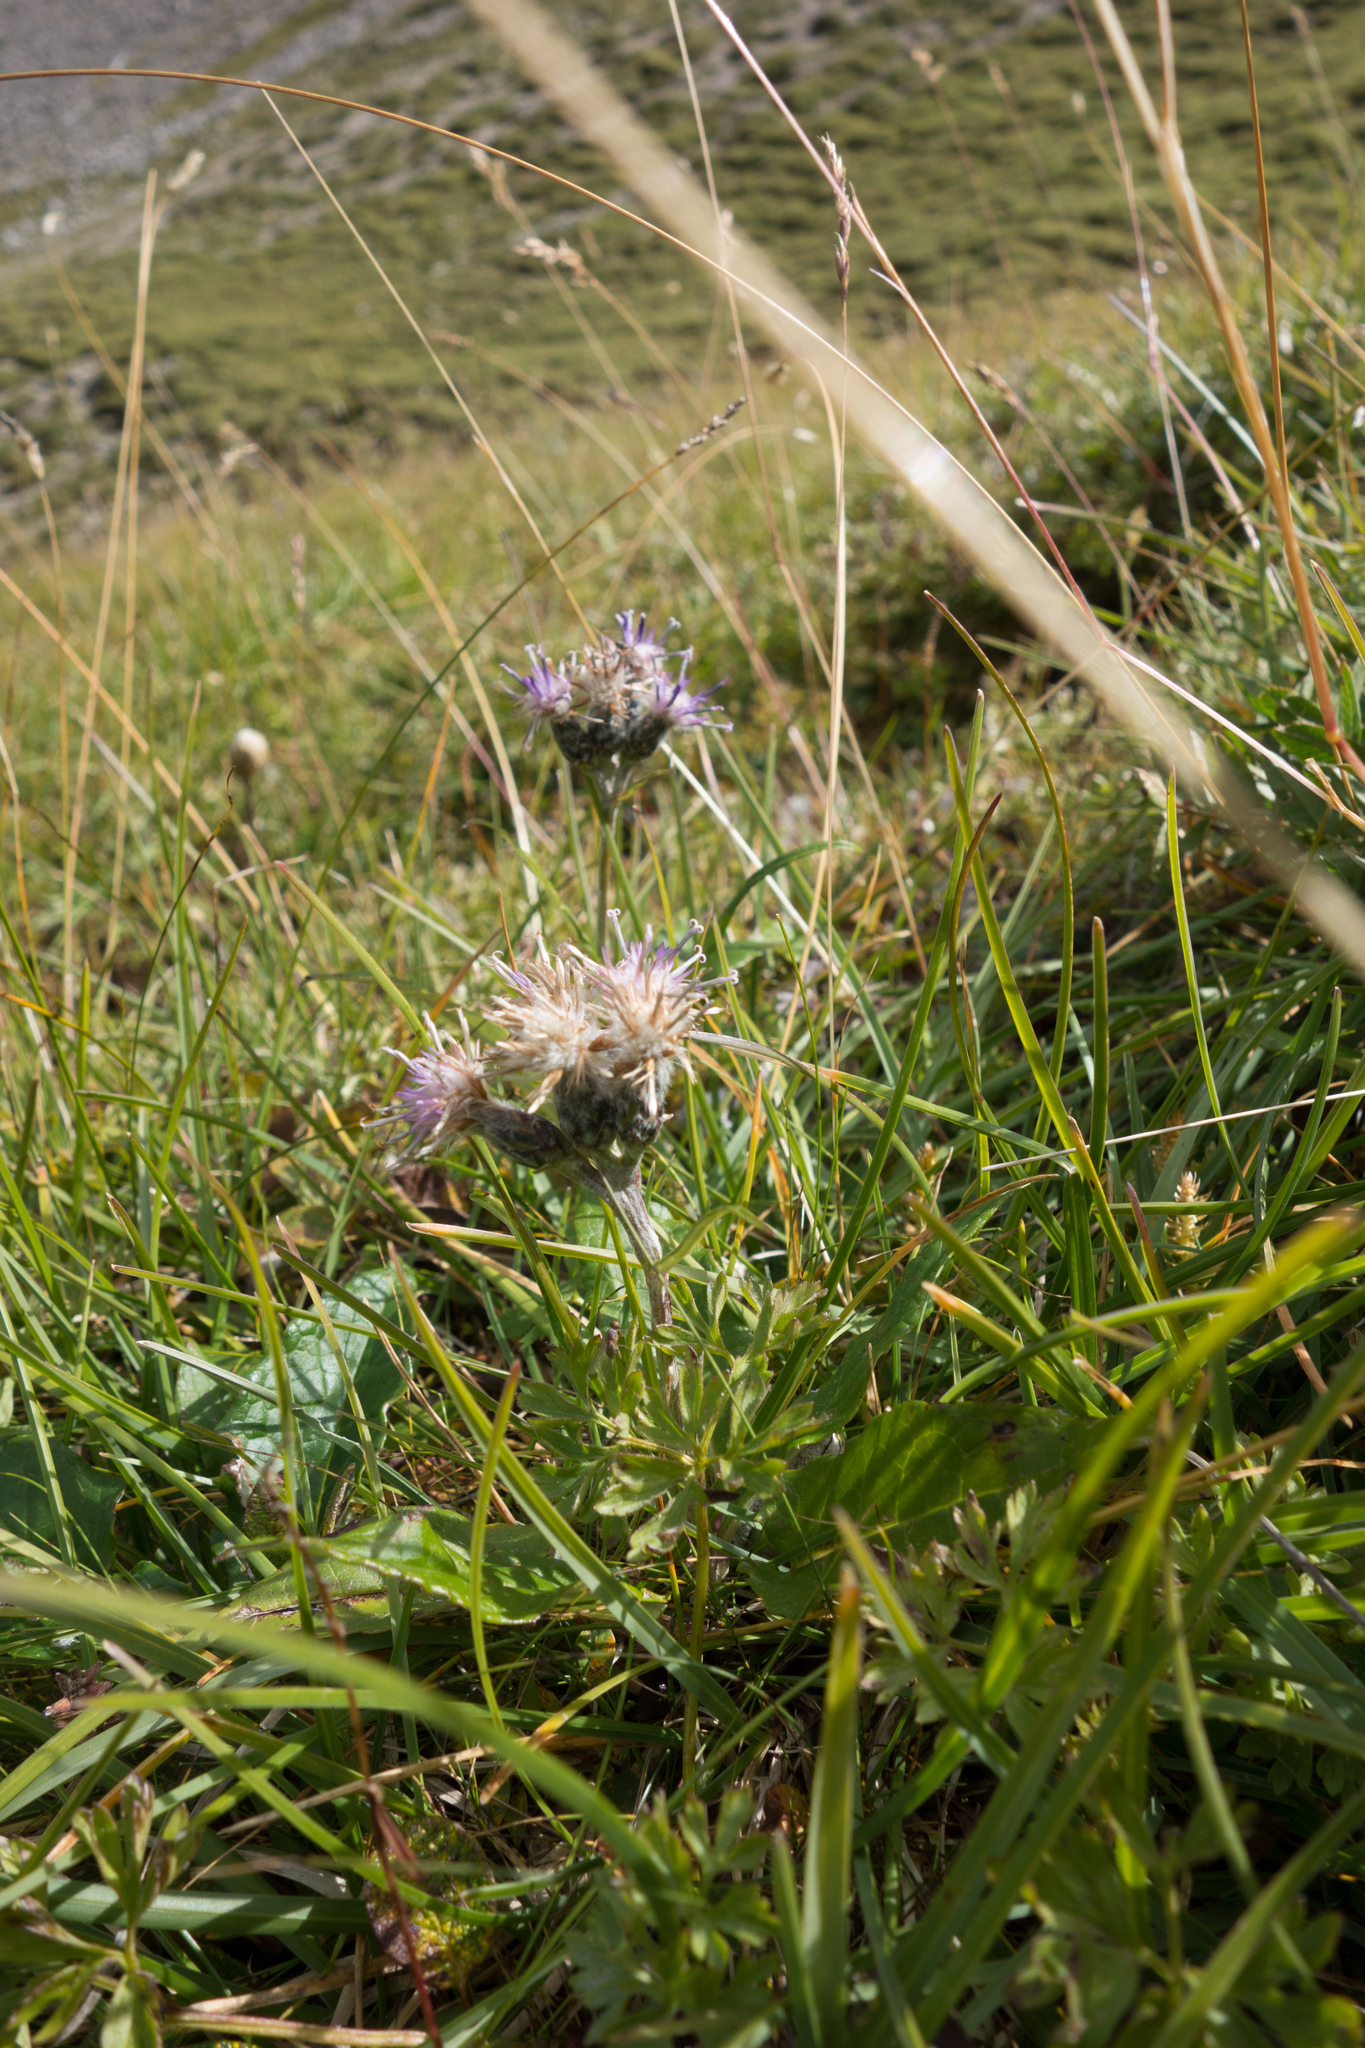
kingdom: Plantae
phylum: Tracheophyta
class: Magnoliopsida
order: Asterales
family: Asteraceae
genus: Saussurea
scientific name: Saussurea alpina
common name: Alpine saw-wort
